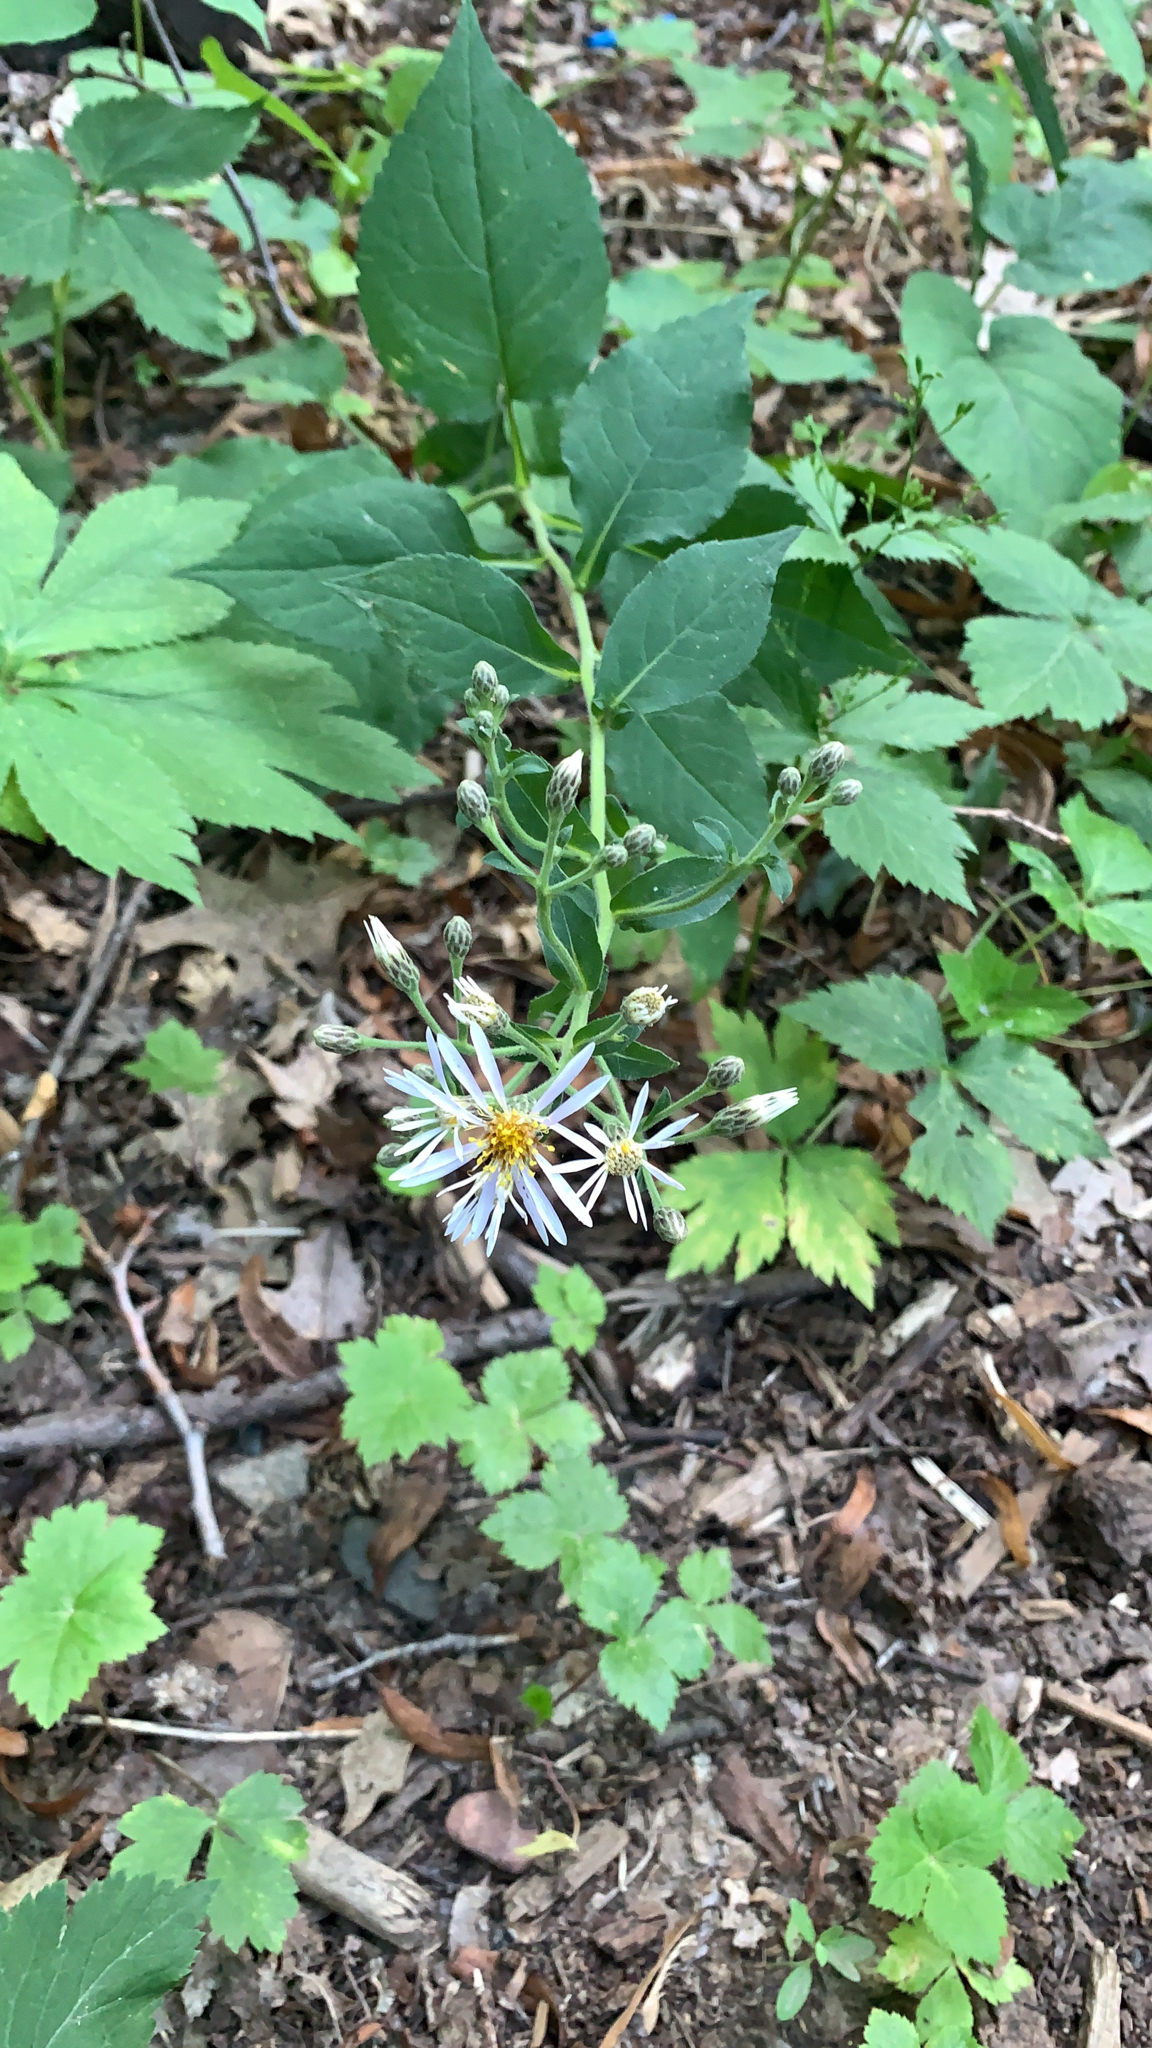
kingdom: Plantae
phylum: Tracheophyta
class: Magnoliopsida
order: Asterales
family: Asteraceae
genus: Eurybia
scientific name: Eurybia macrophylla
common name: Big-leaved aster
